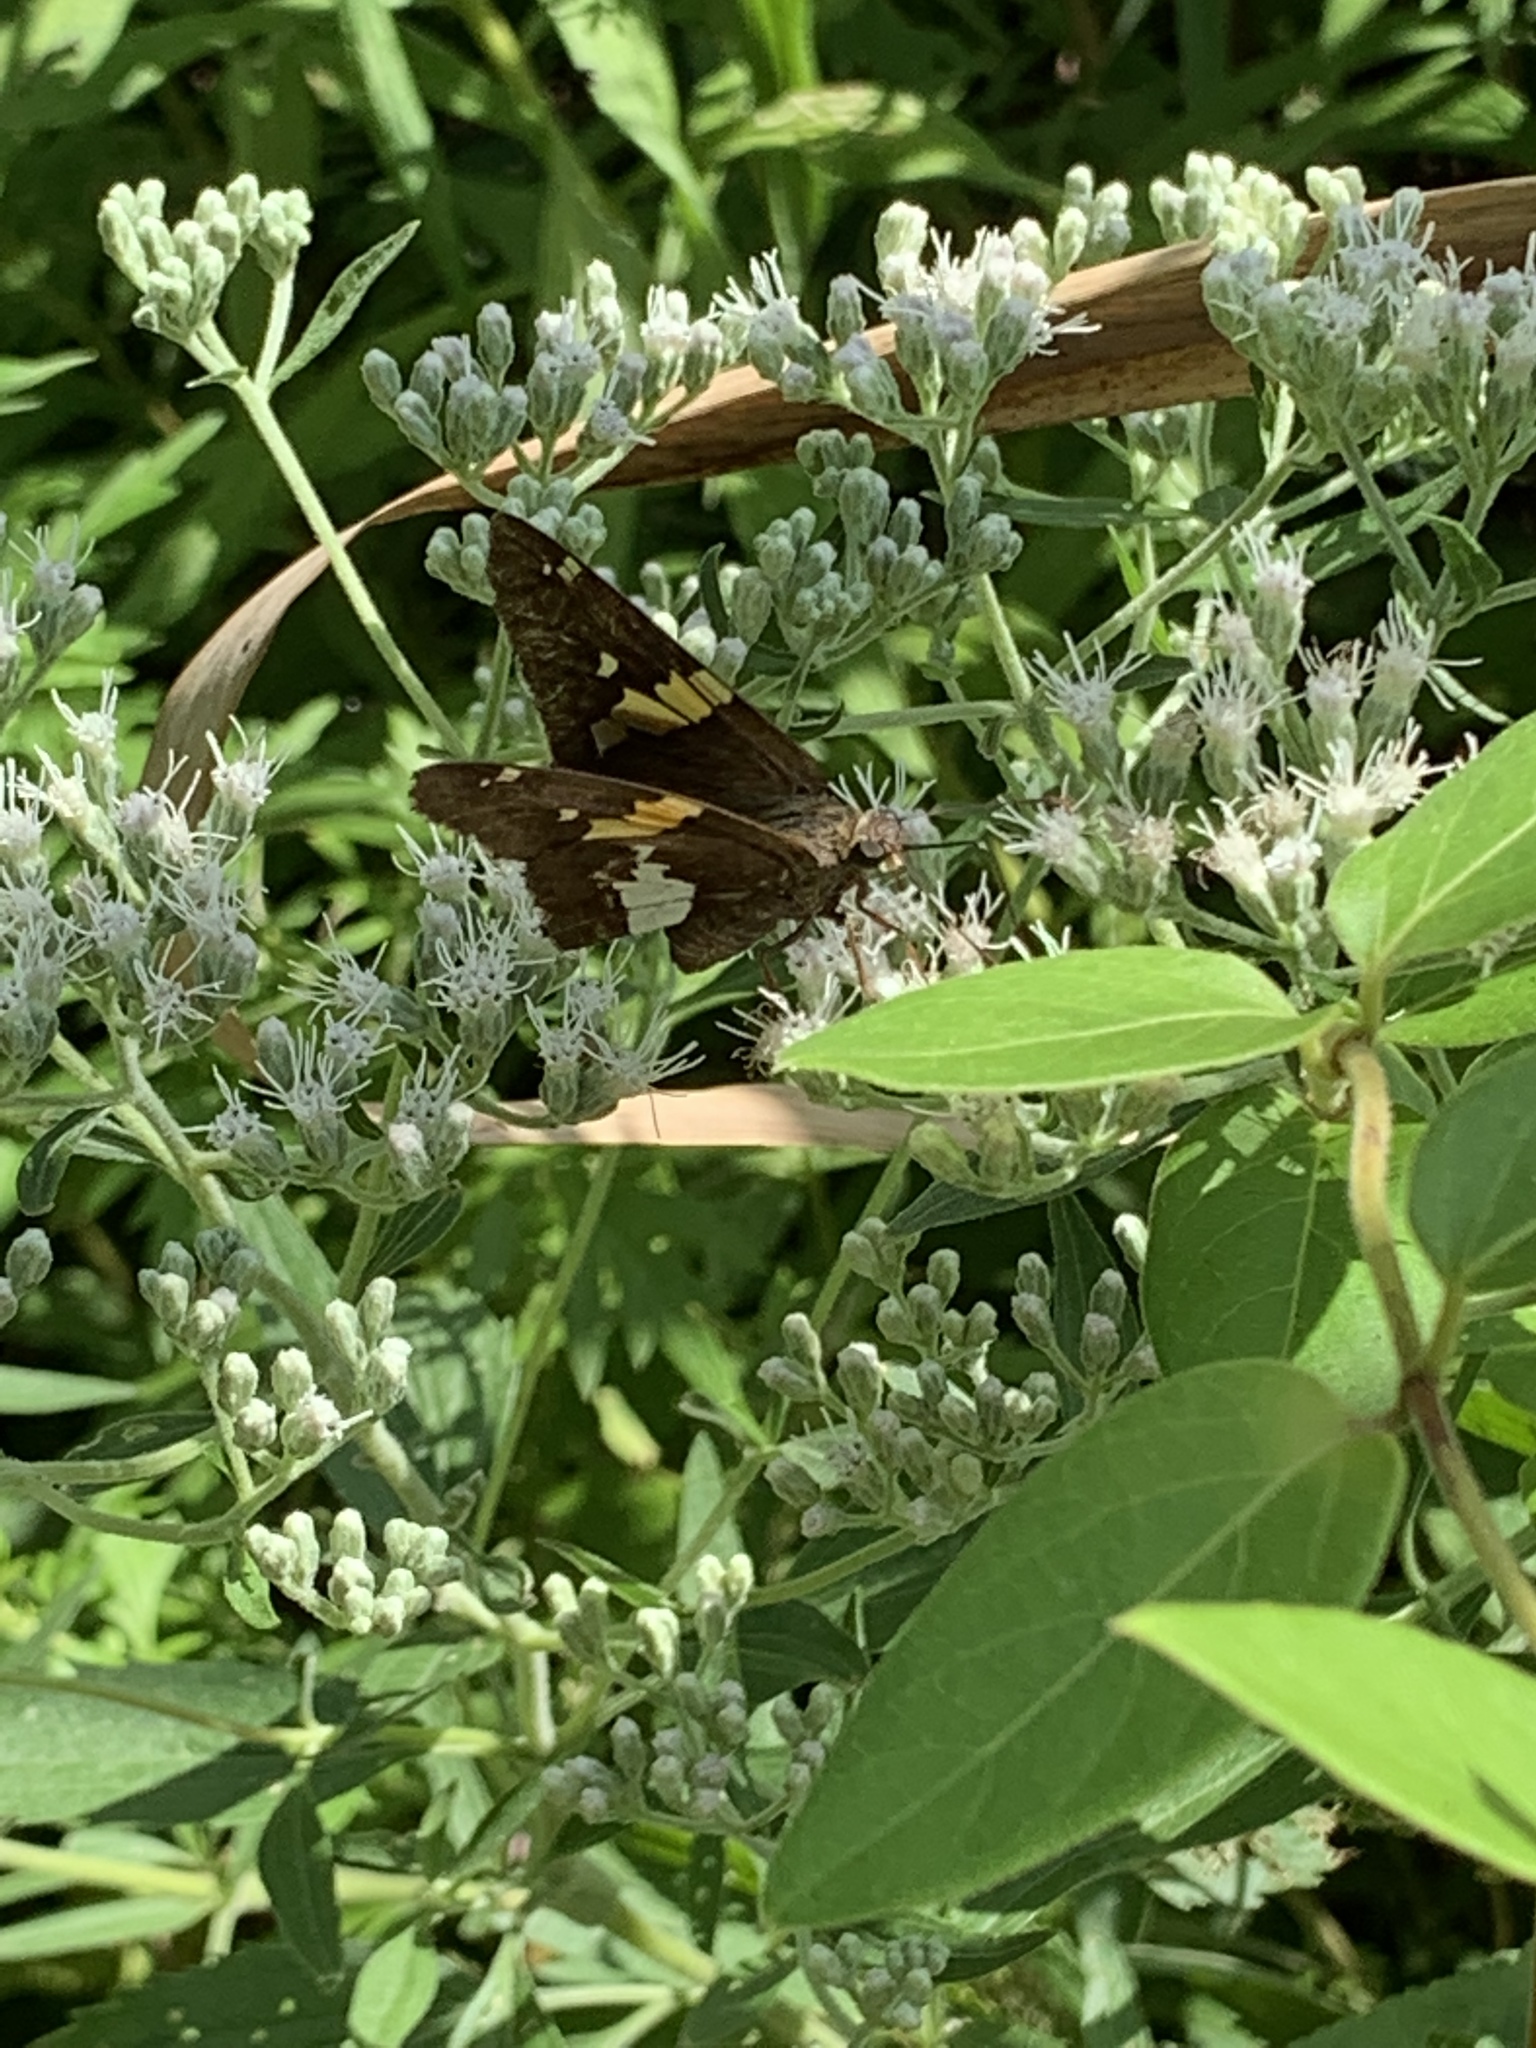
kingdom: Animalia
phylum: Arthropoda
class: Insecta
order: Lepidoptera
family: Hesperiidae
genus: Epargyreus
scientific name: Epargyreus clarus
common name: Silver-spotted skipper
